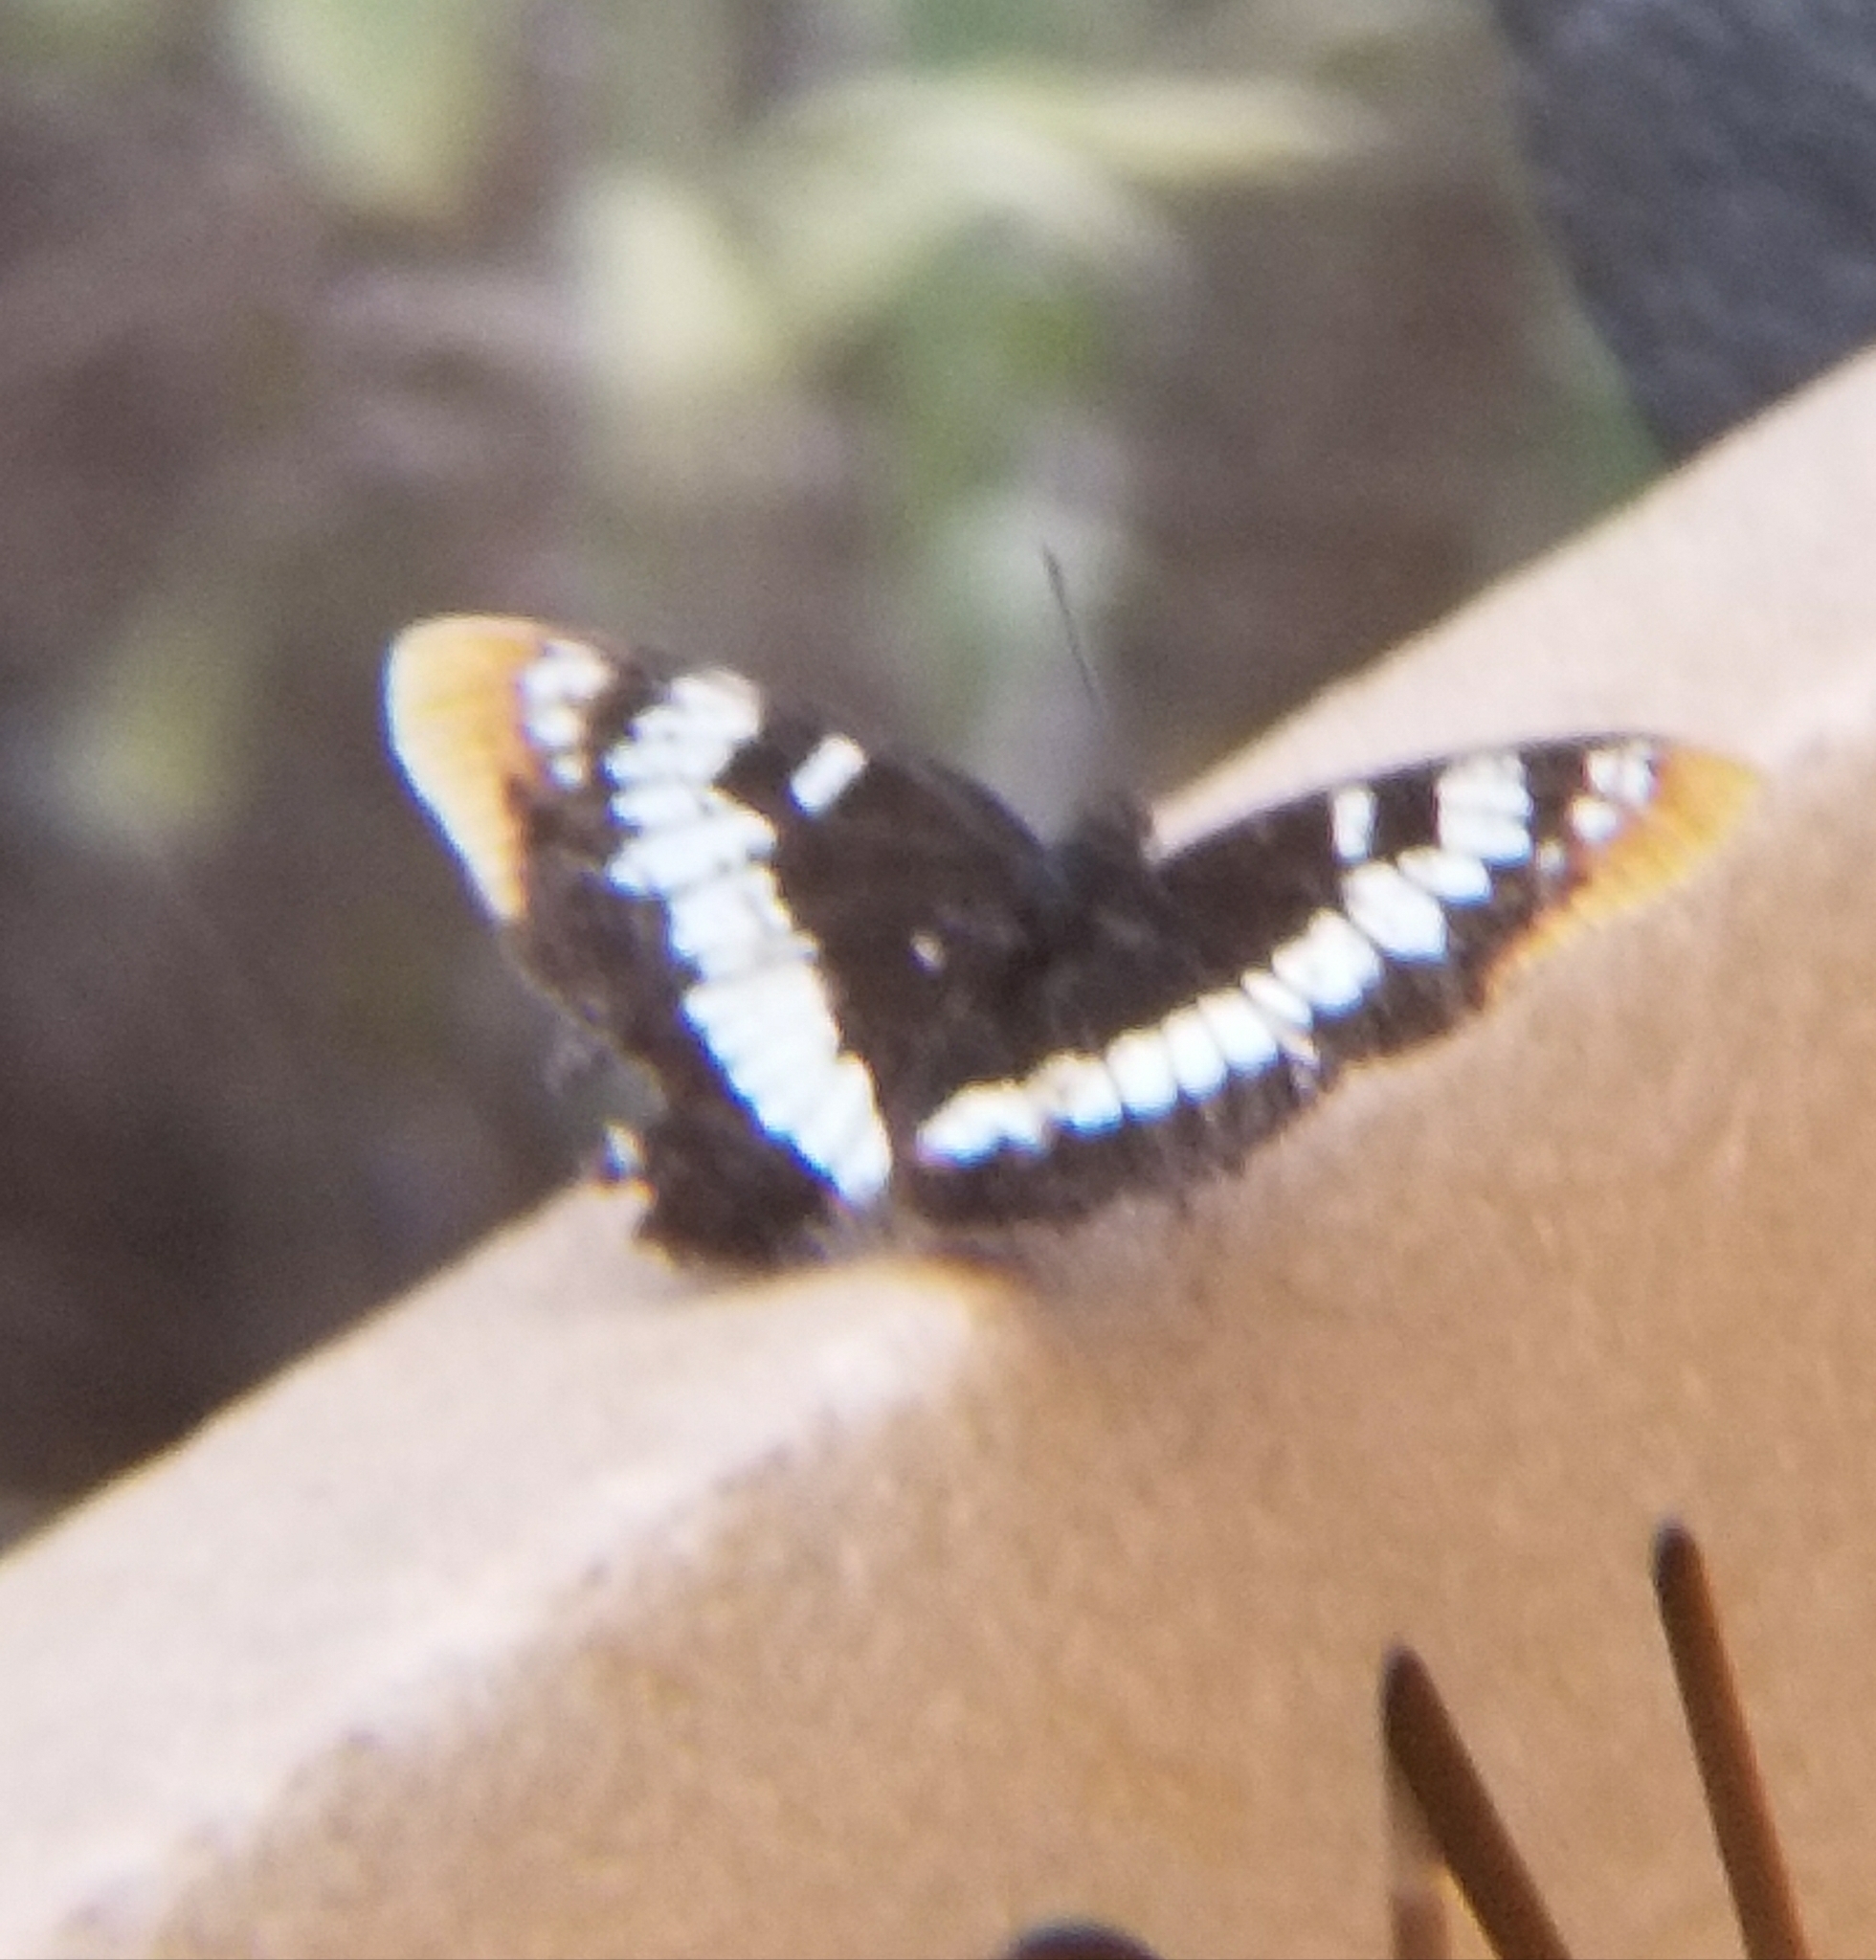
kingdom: Animalia
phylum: Arthropoda
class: Insecta
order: Lepidoptera
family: Nymphalidae
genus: Limenitis
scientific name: Limenitis lorquini
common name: Lorquin's admiral
